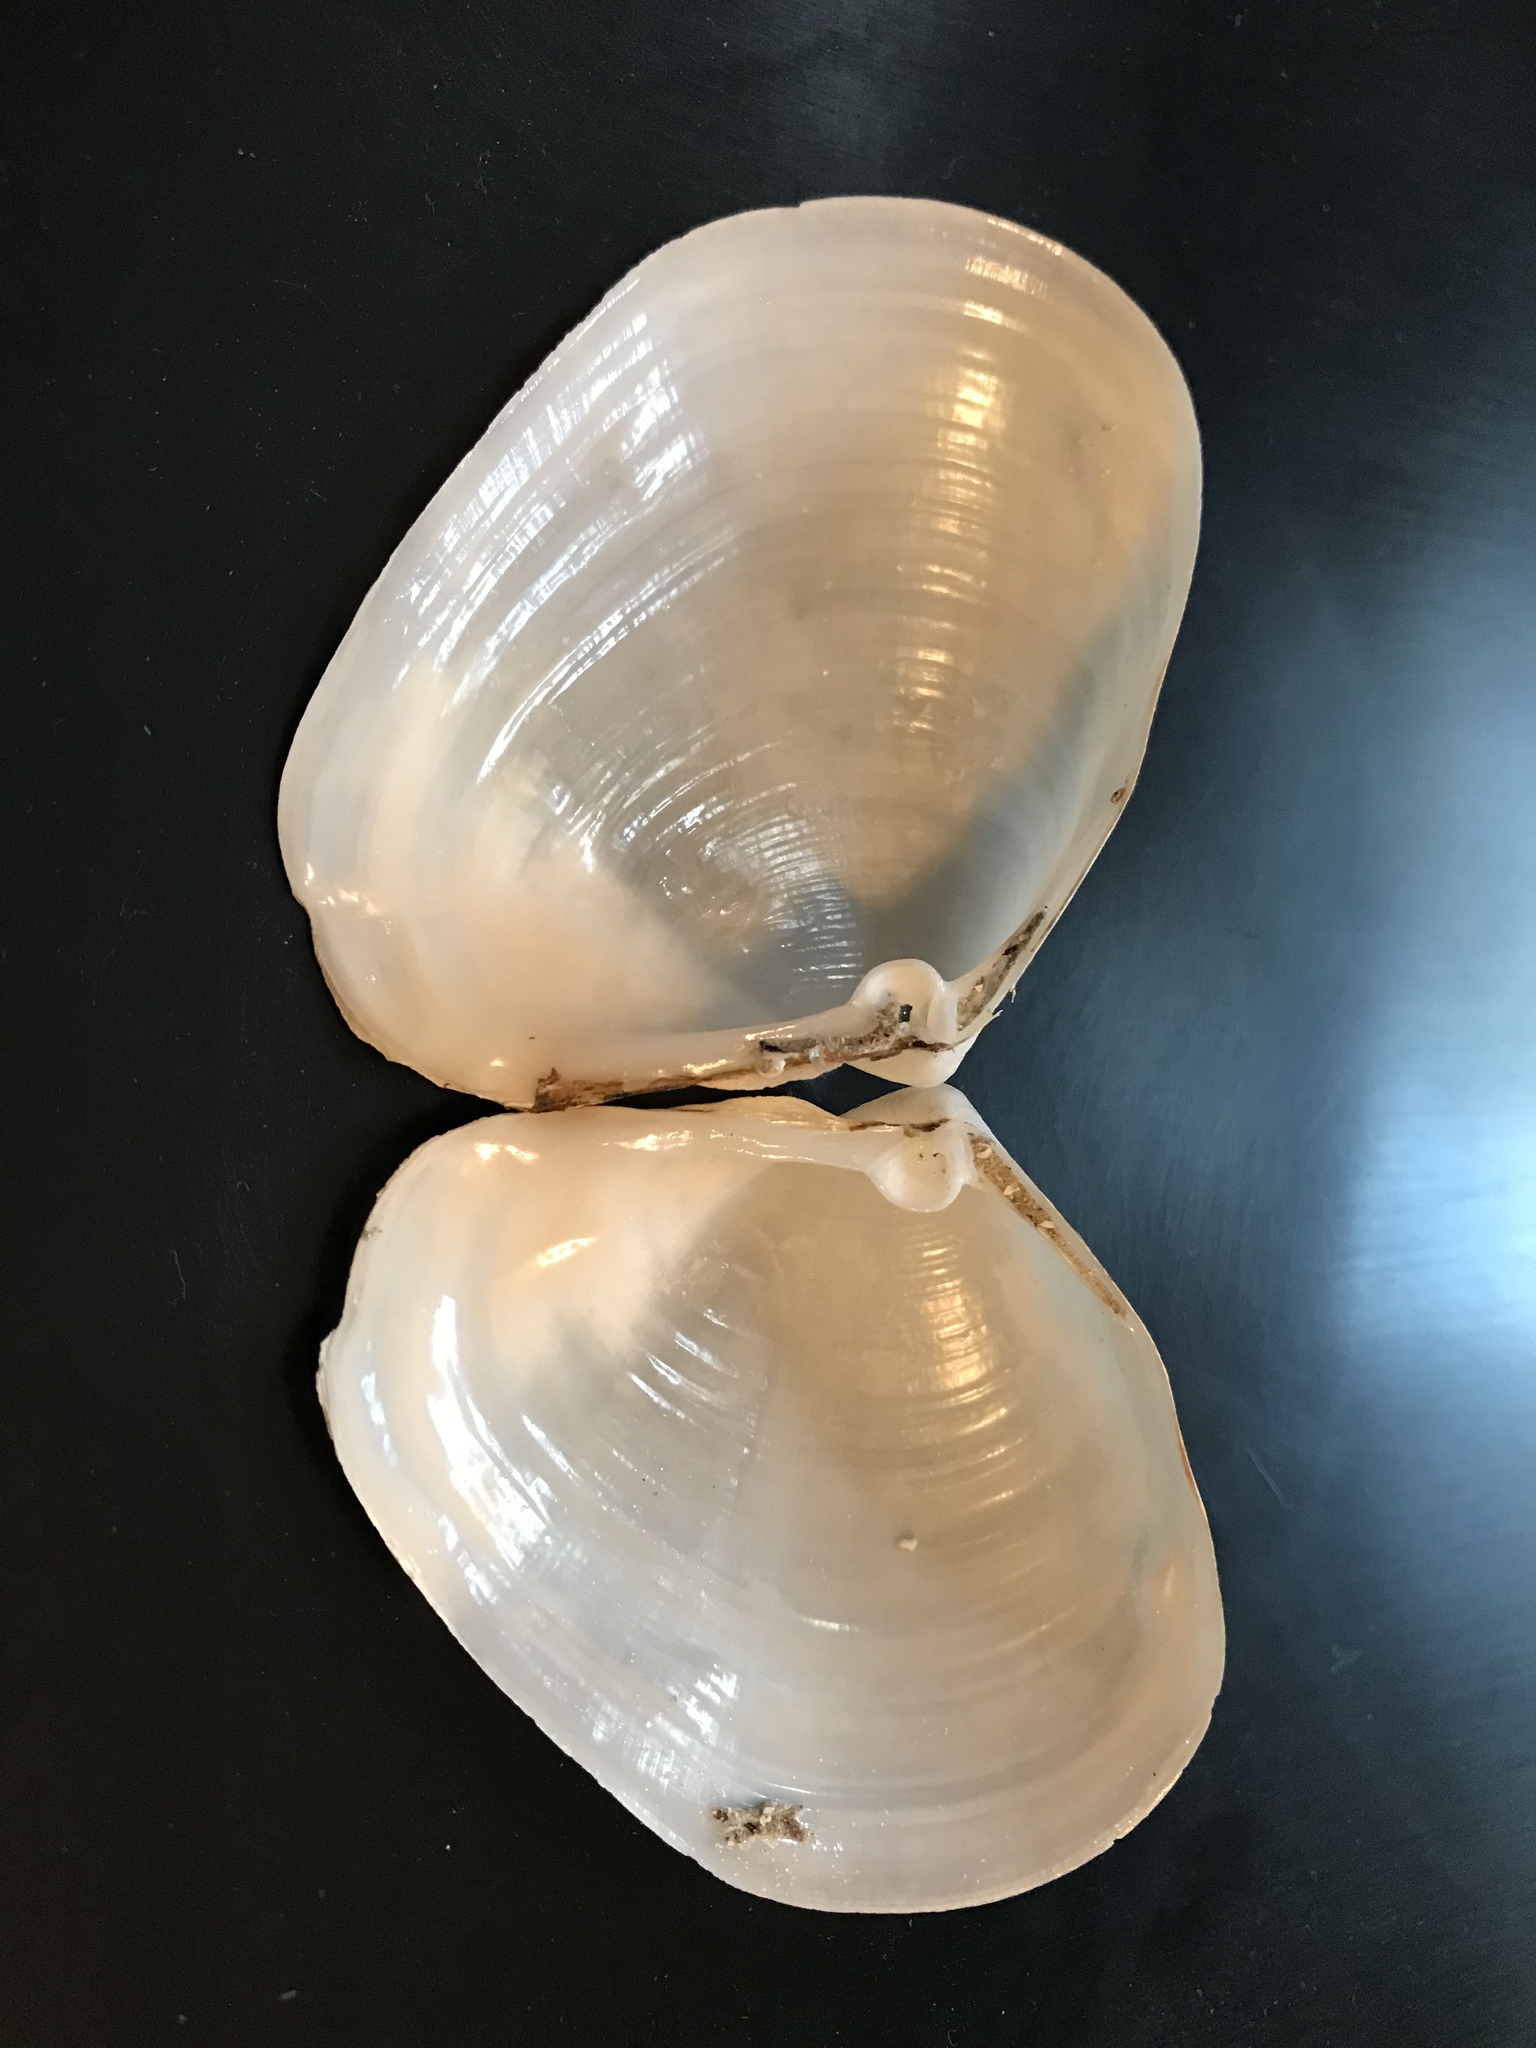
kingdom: Animalia
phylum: Mollusca
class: Bivalvia
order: Venerida
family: Anatinellidae
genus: Anatina
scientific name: Anatina anatina
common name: Smooth duckclam
